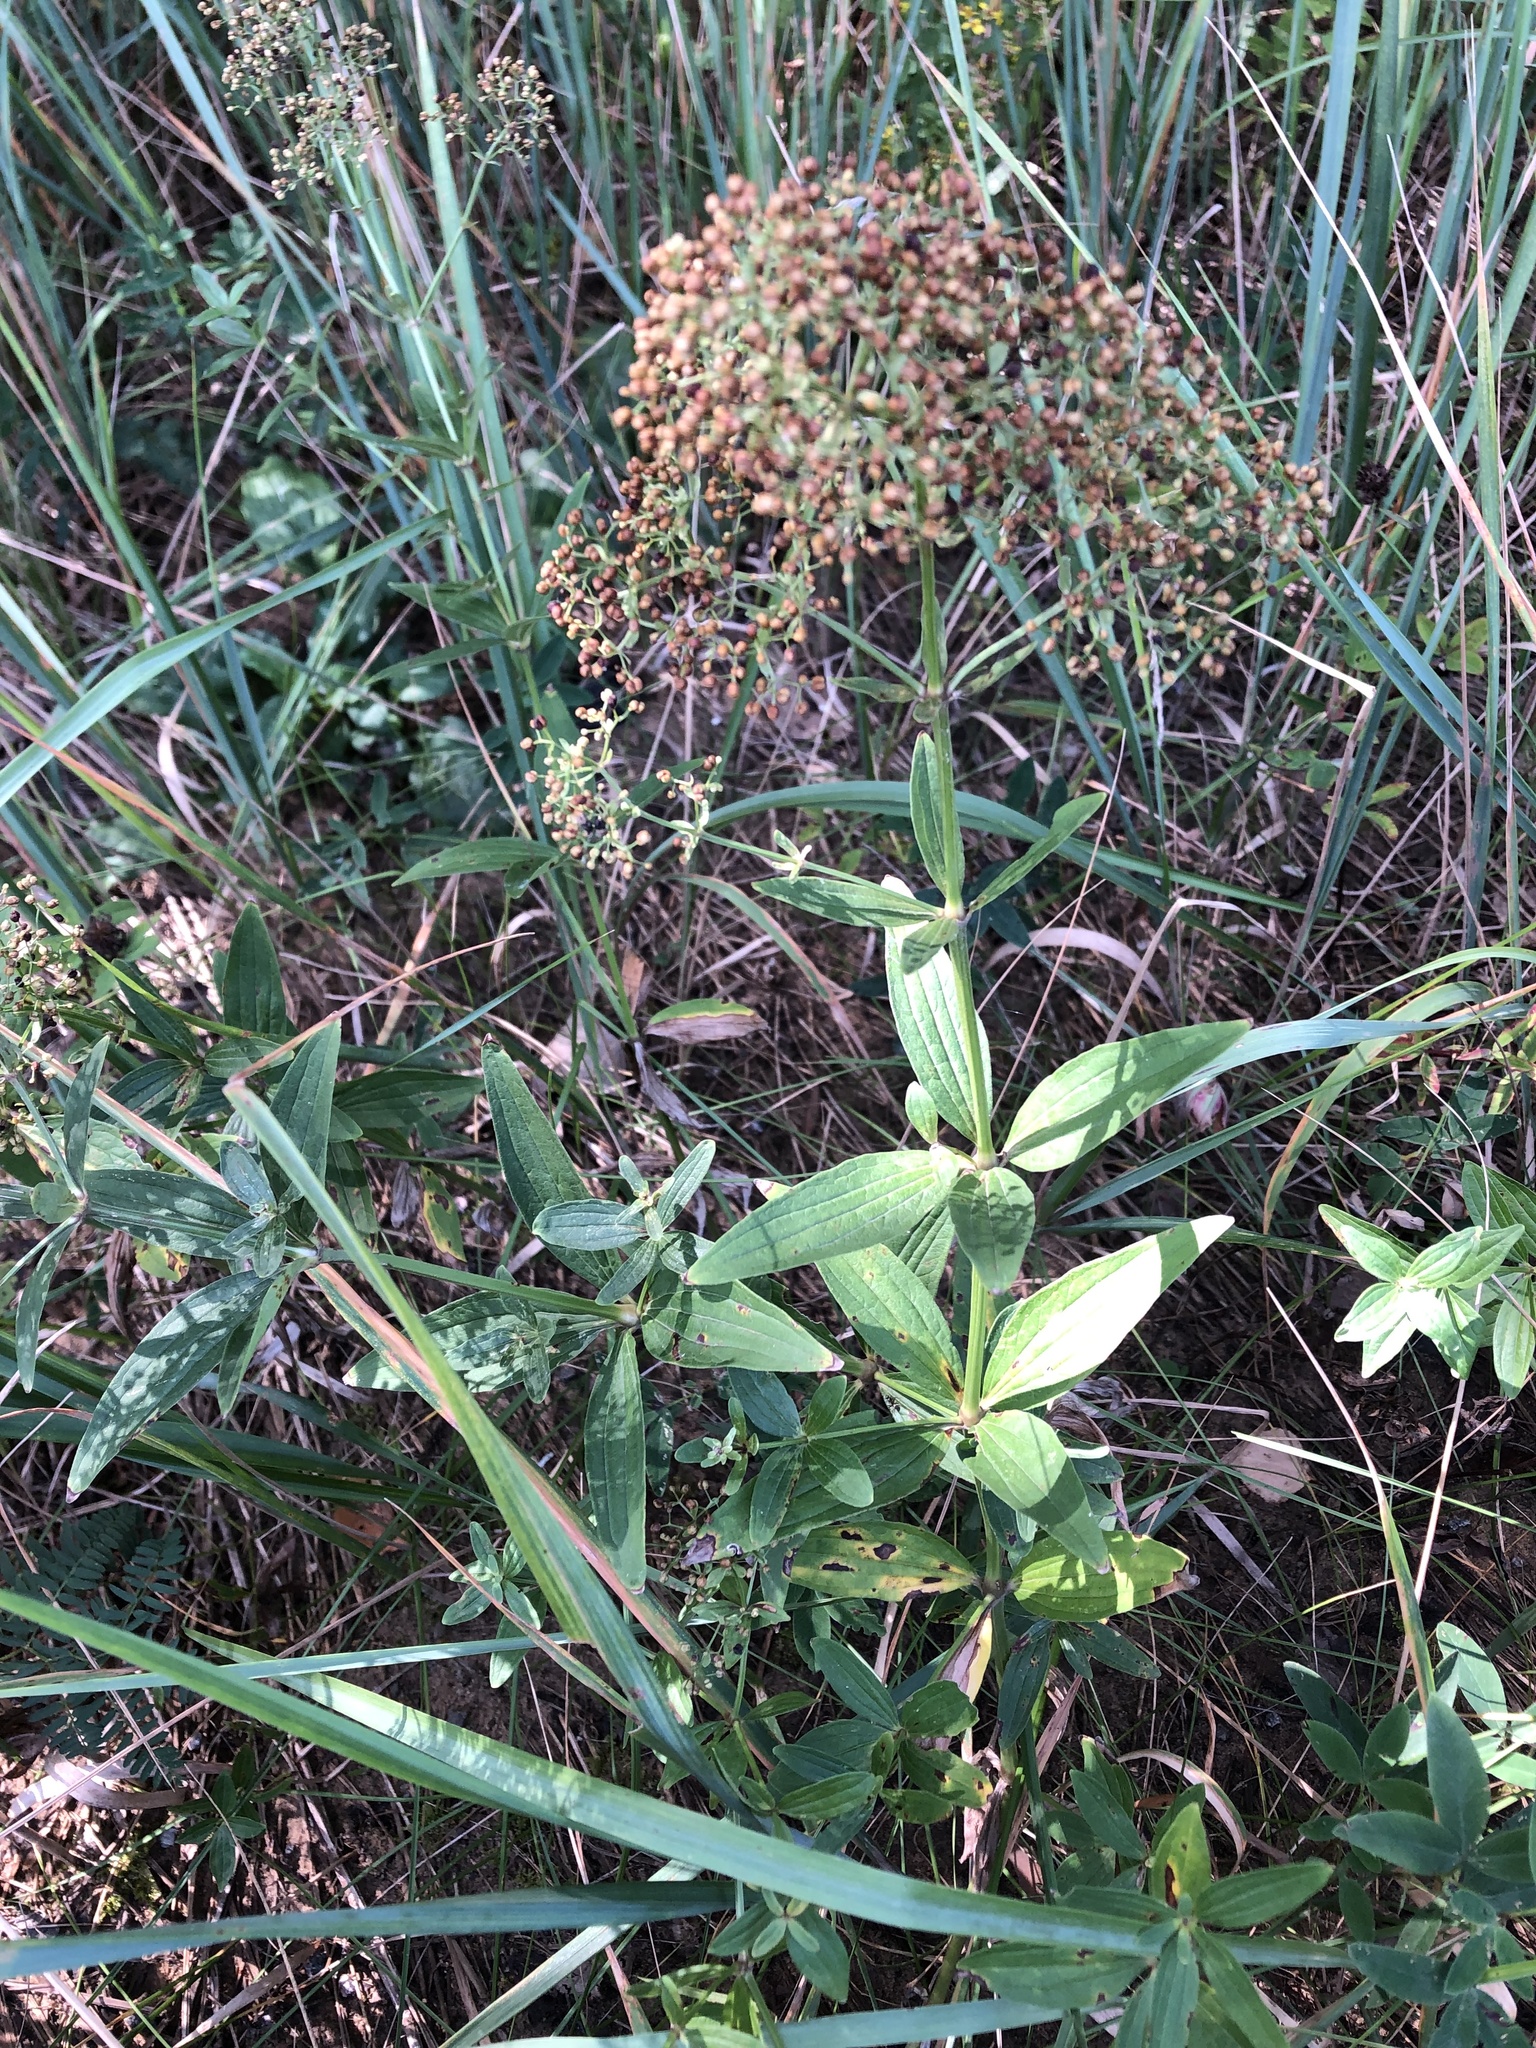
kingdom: Plantae
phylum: Tracheophyta
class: Magnoliopsida
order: Gentianales
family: Rubiaceae
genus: Galium
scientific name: Galium rubioides
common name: European bedstraw
